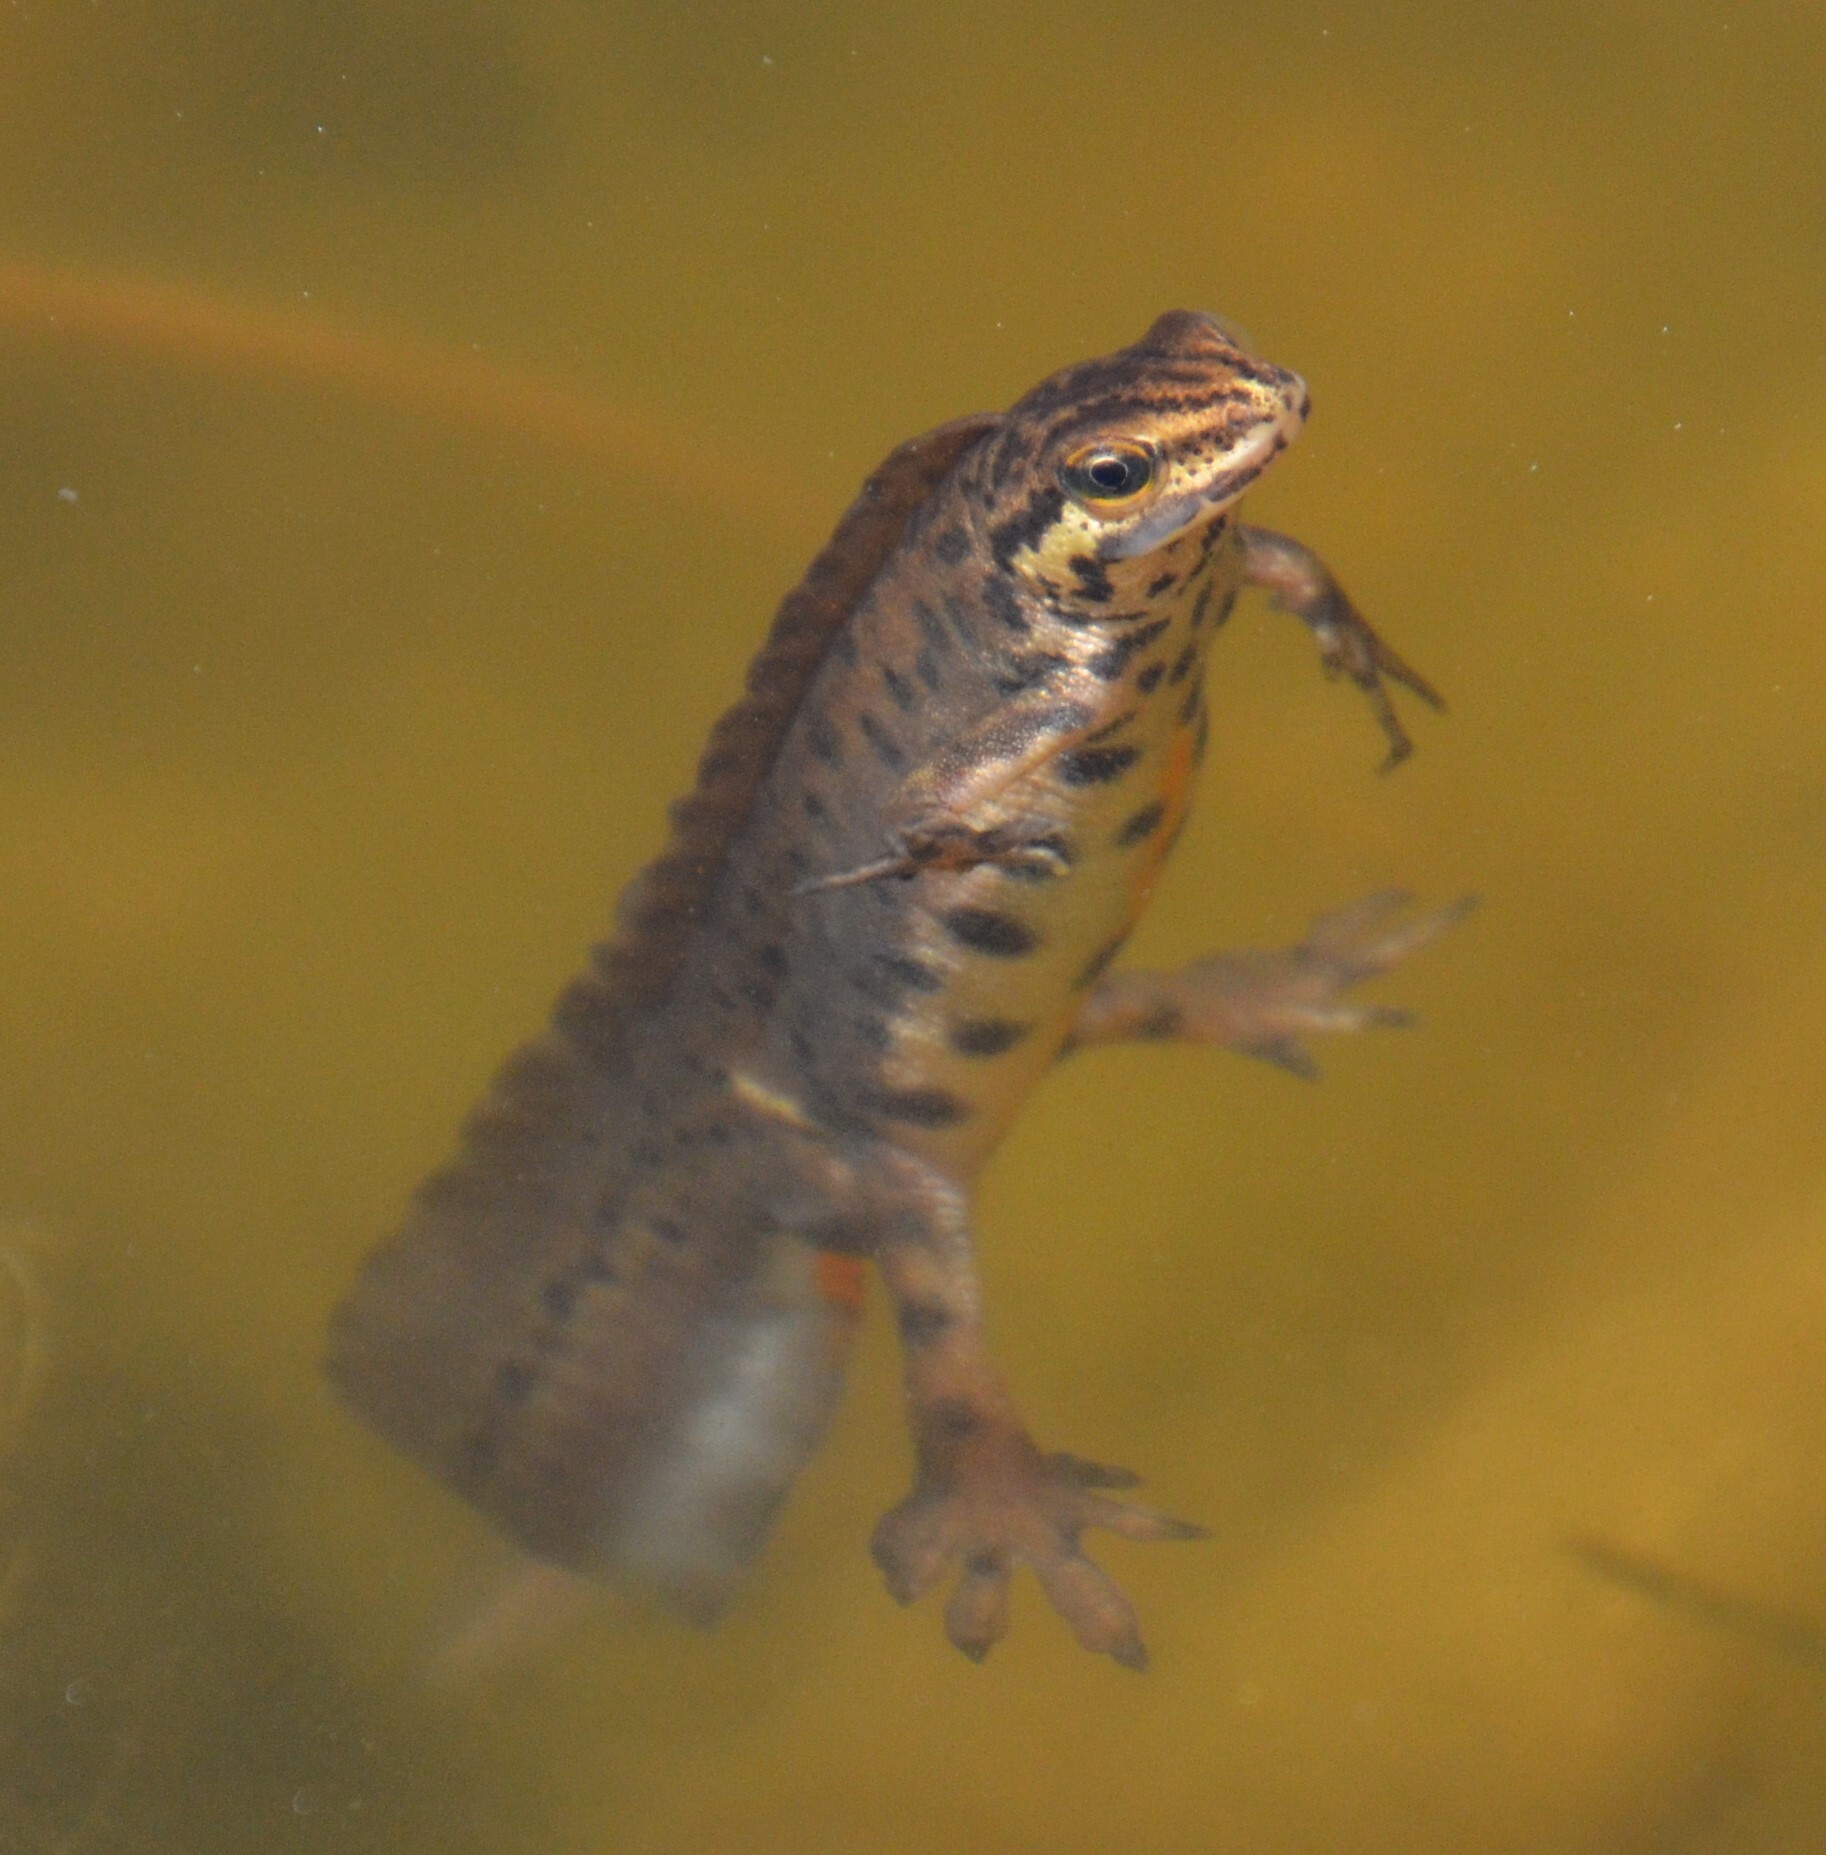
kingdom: Animalia
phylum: Chordata
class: Amphibia
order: Caudata
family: Salamandridae
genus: Lissotriton
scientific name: Lissotriton vulgaris
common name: Smooth newt
